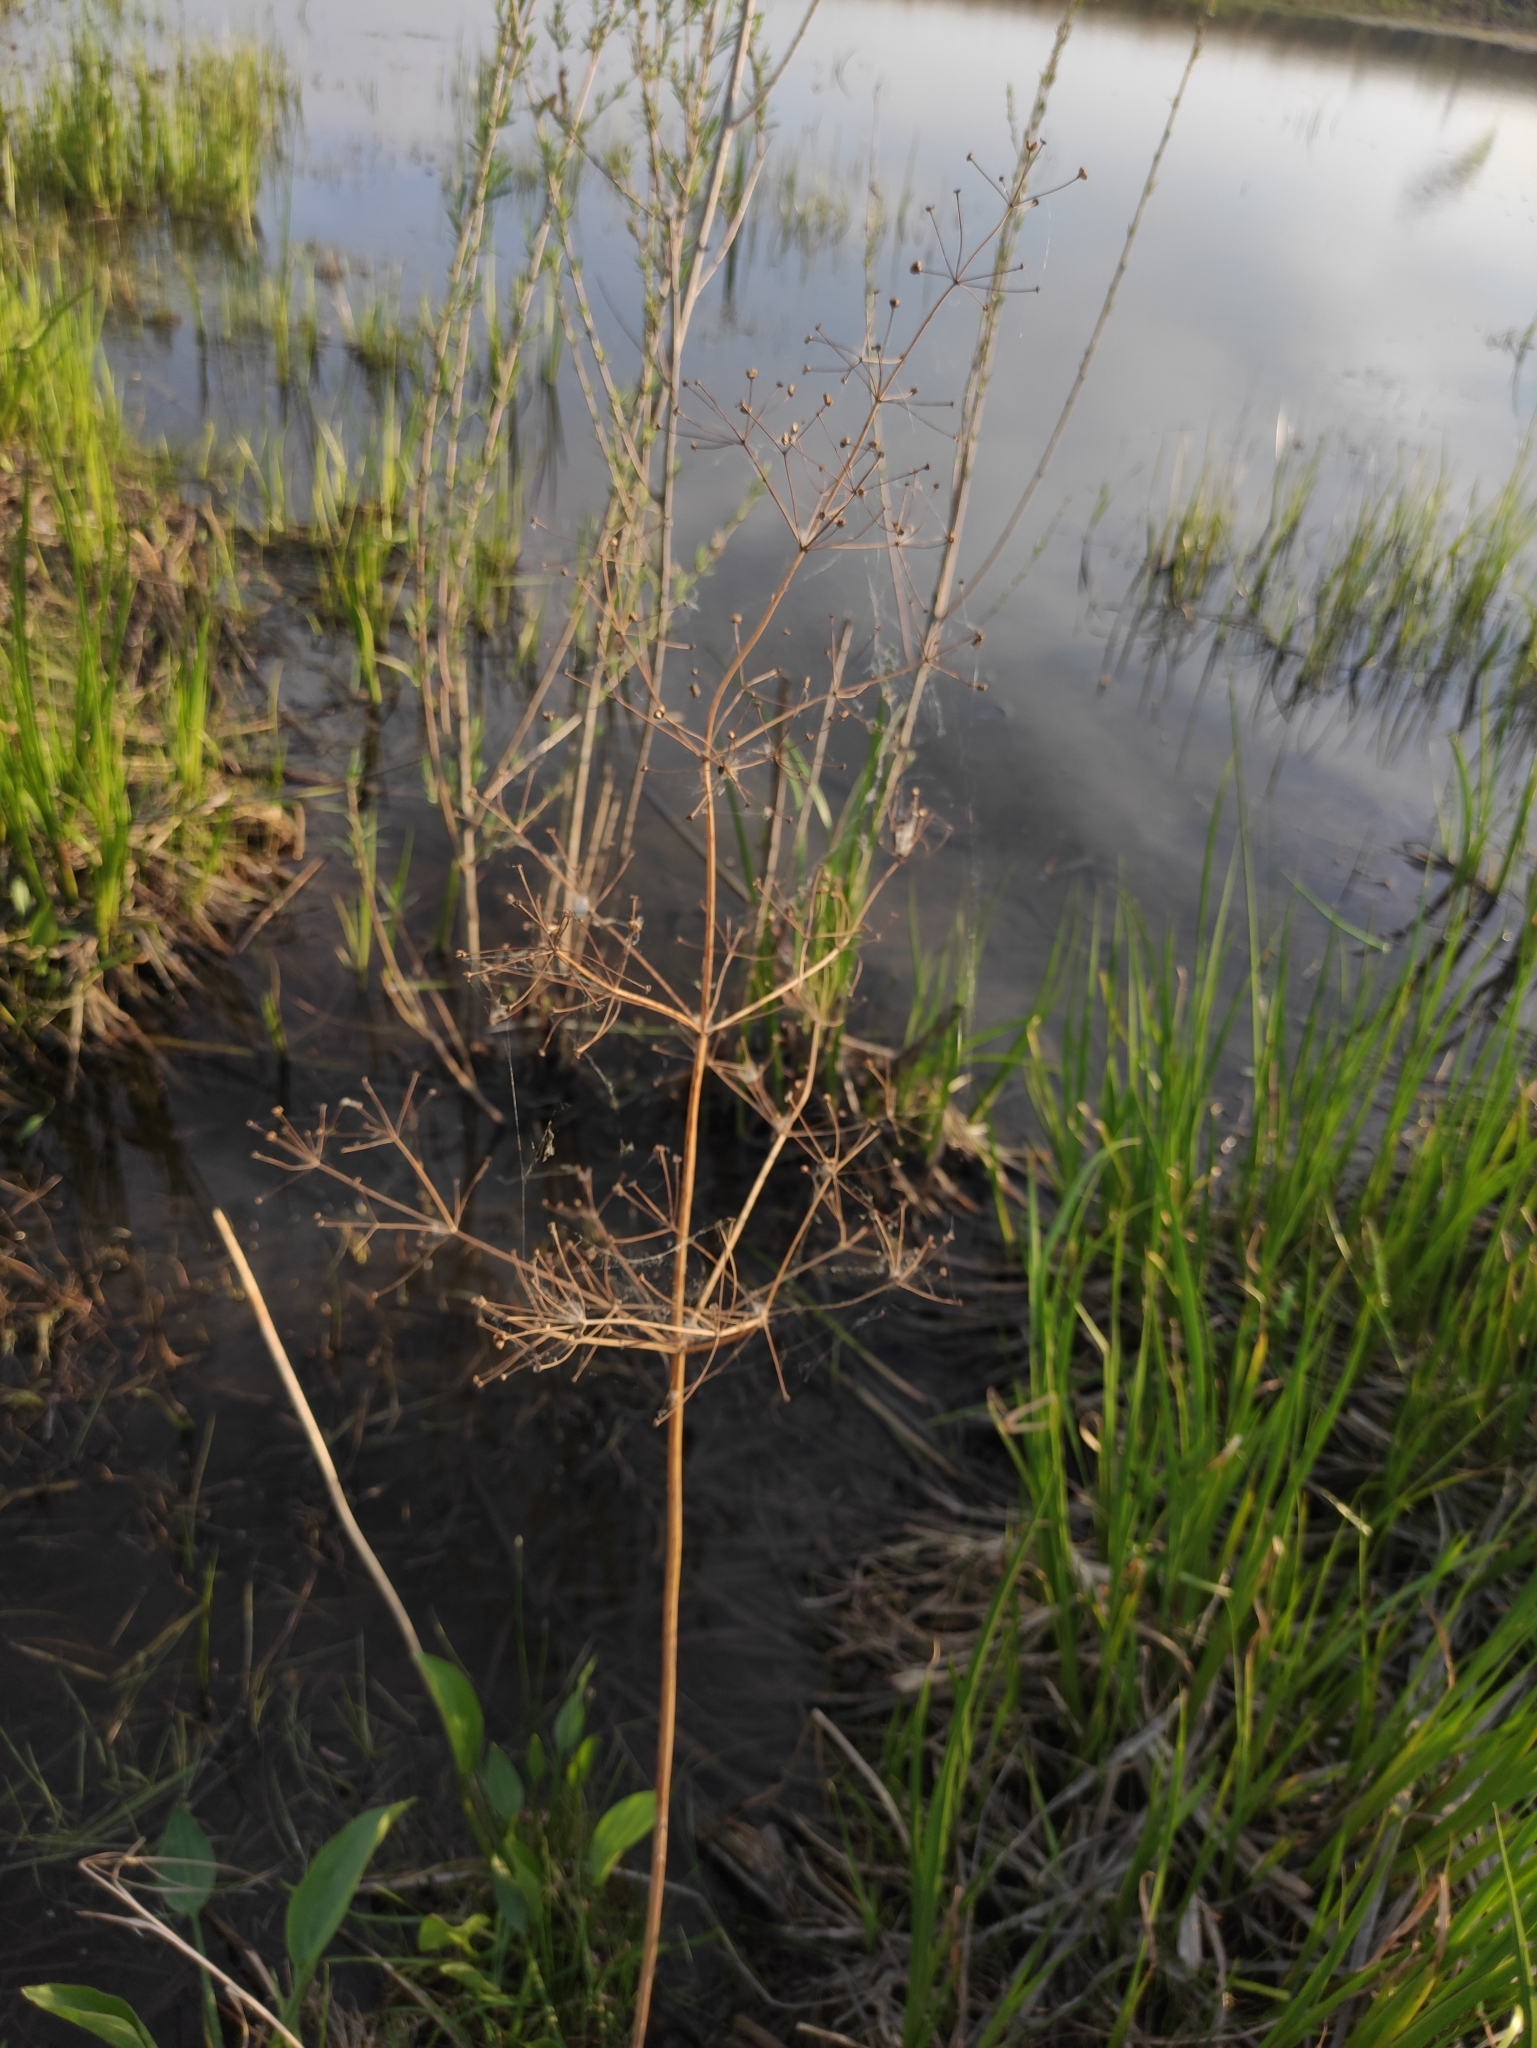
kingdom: Plantae
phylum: Tracheophyta
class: Liliopsida
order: Alismatales
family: Alismataceae
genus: Alisma
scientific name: Alisma plantago-aquatica
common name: Water-plantain
